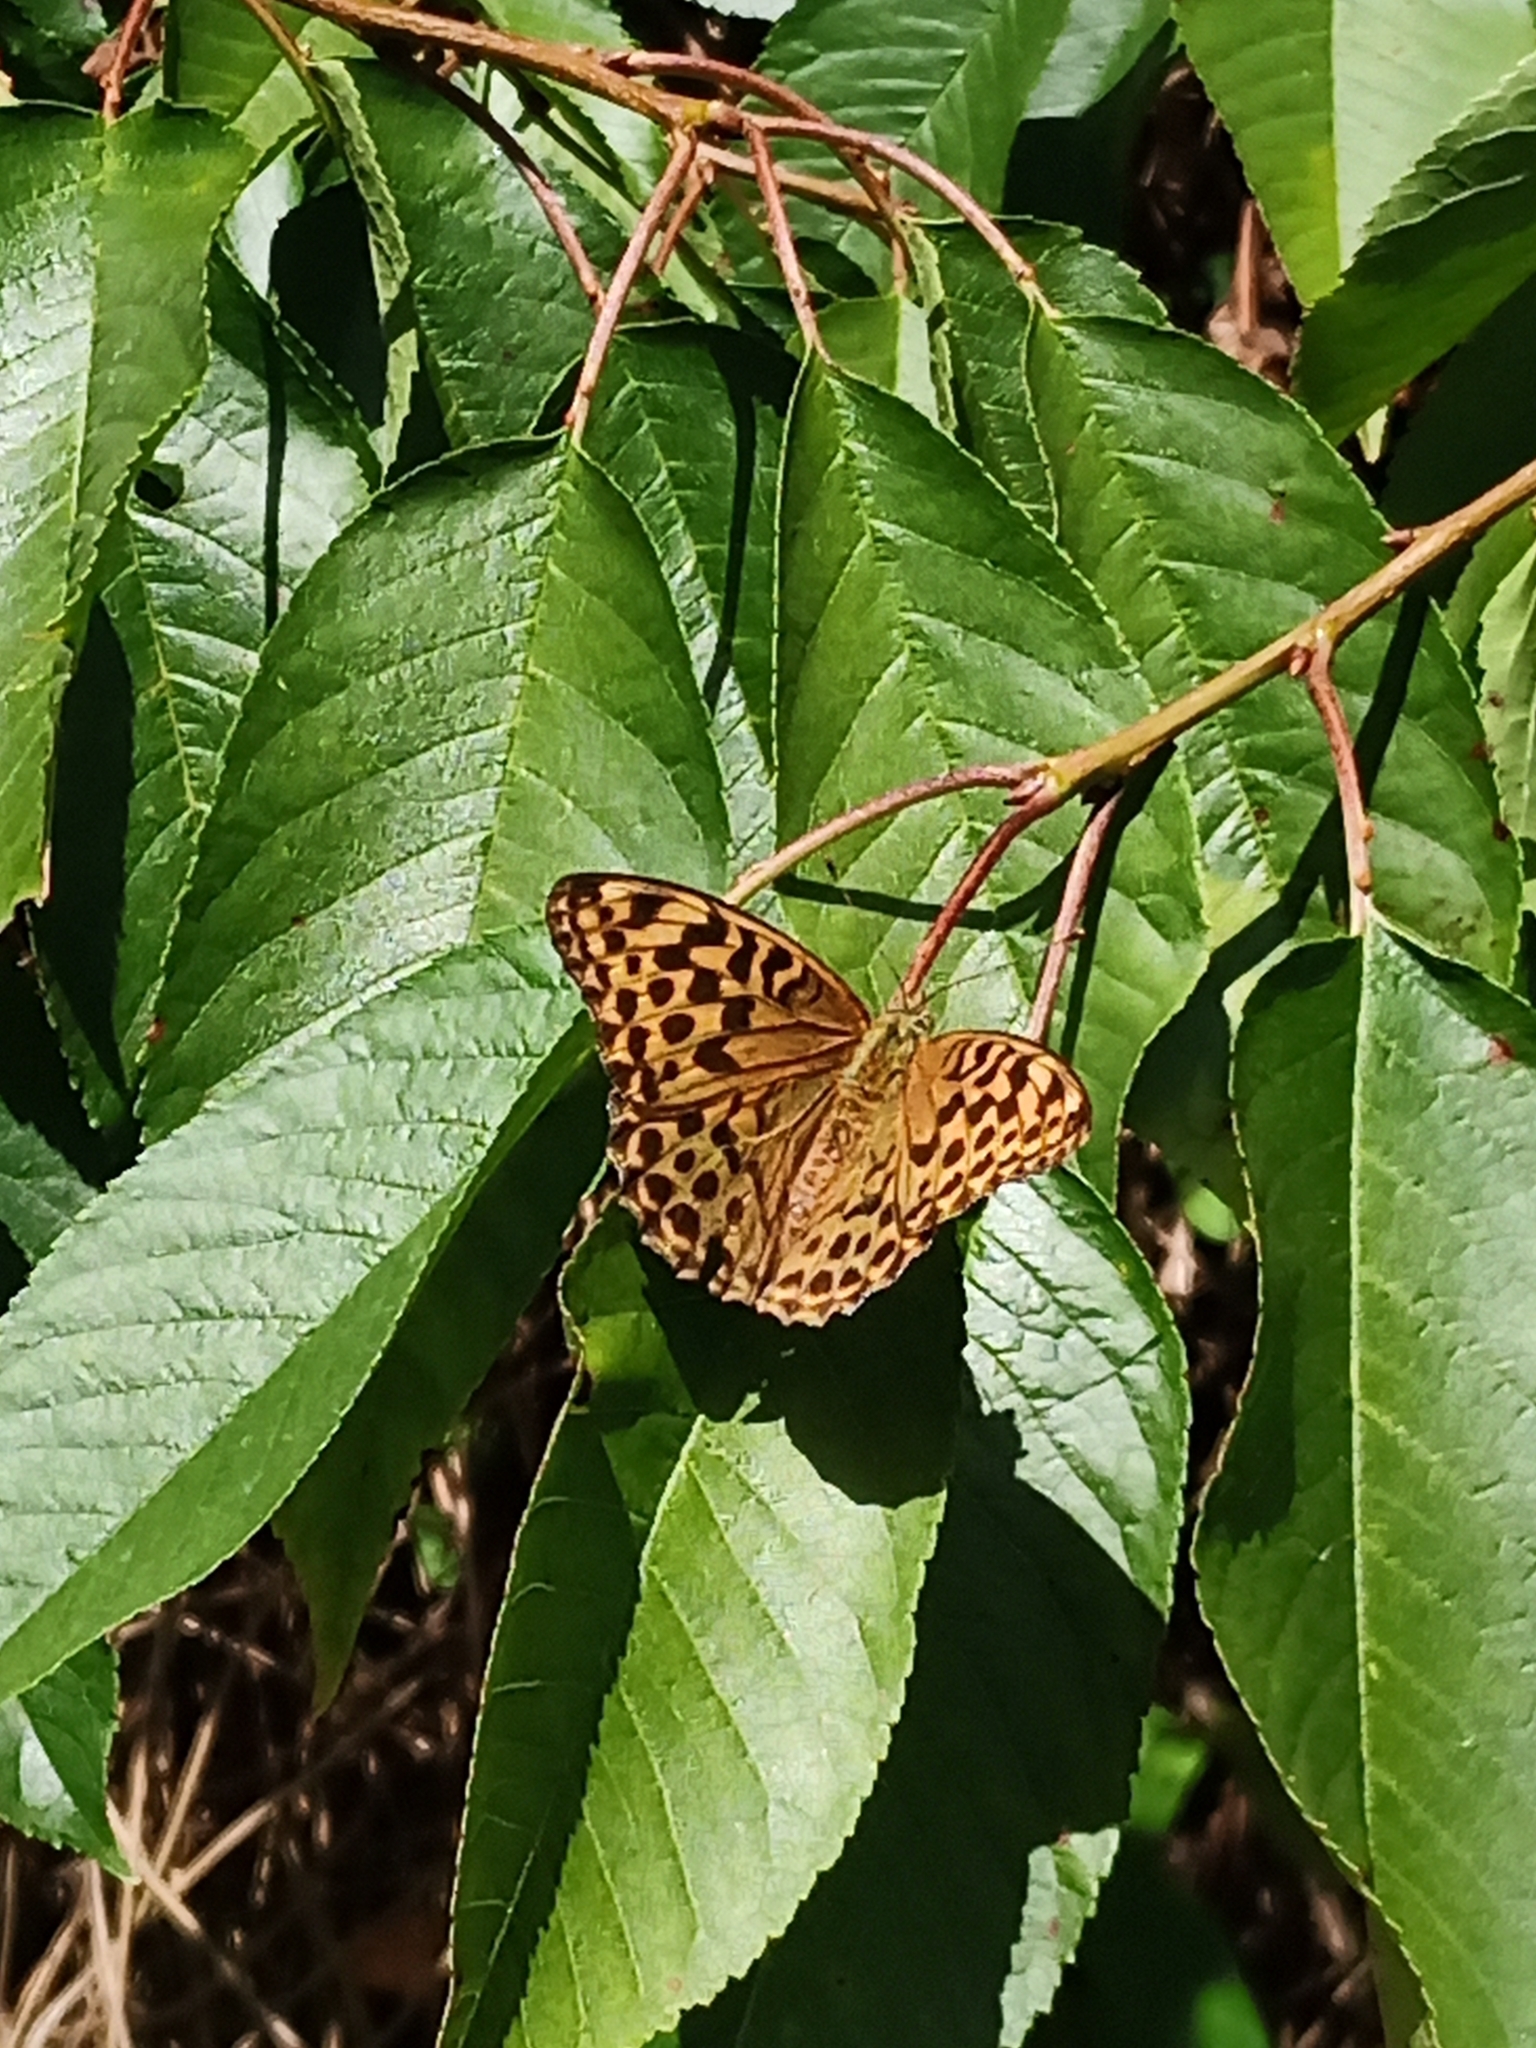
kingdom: Animalia
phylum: Arthropoda
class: Insecta
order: Lepidoptera
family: Nymphalidae
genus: Argynnis
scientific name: Argynnis paphia
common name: Silver-washed fritillary
